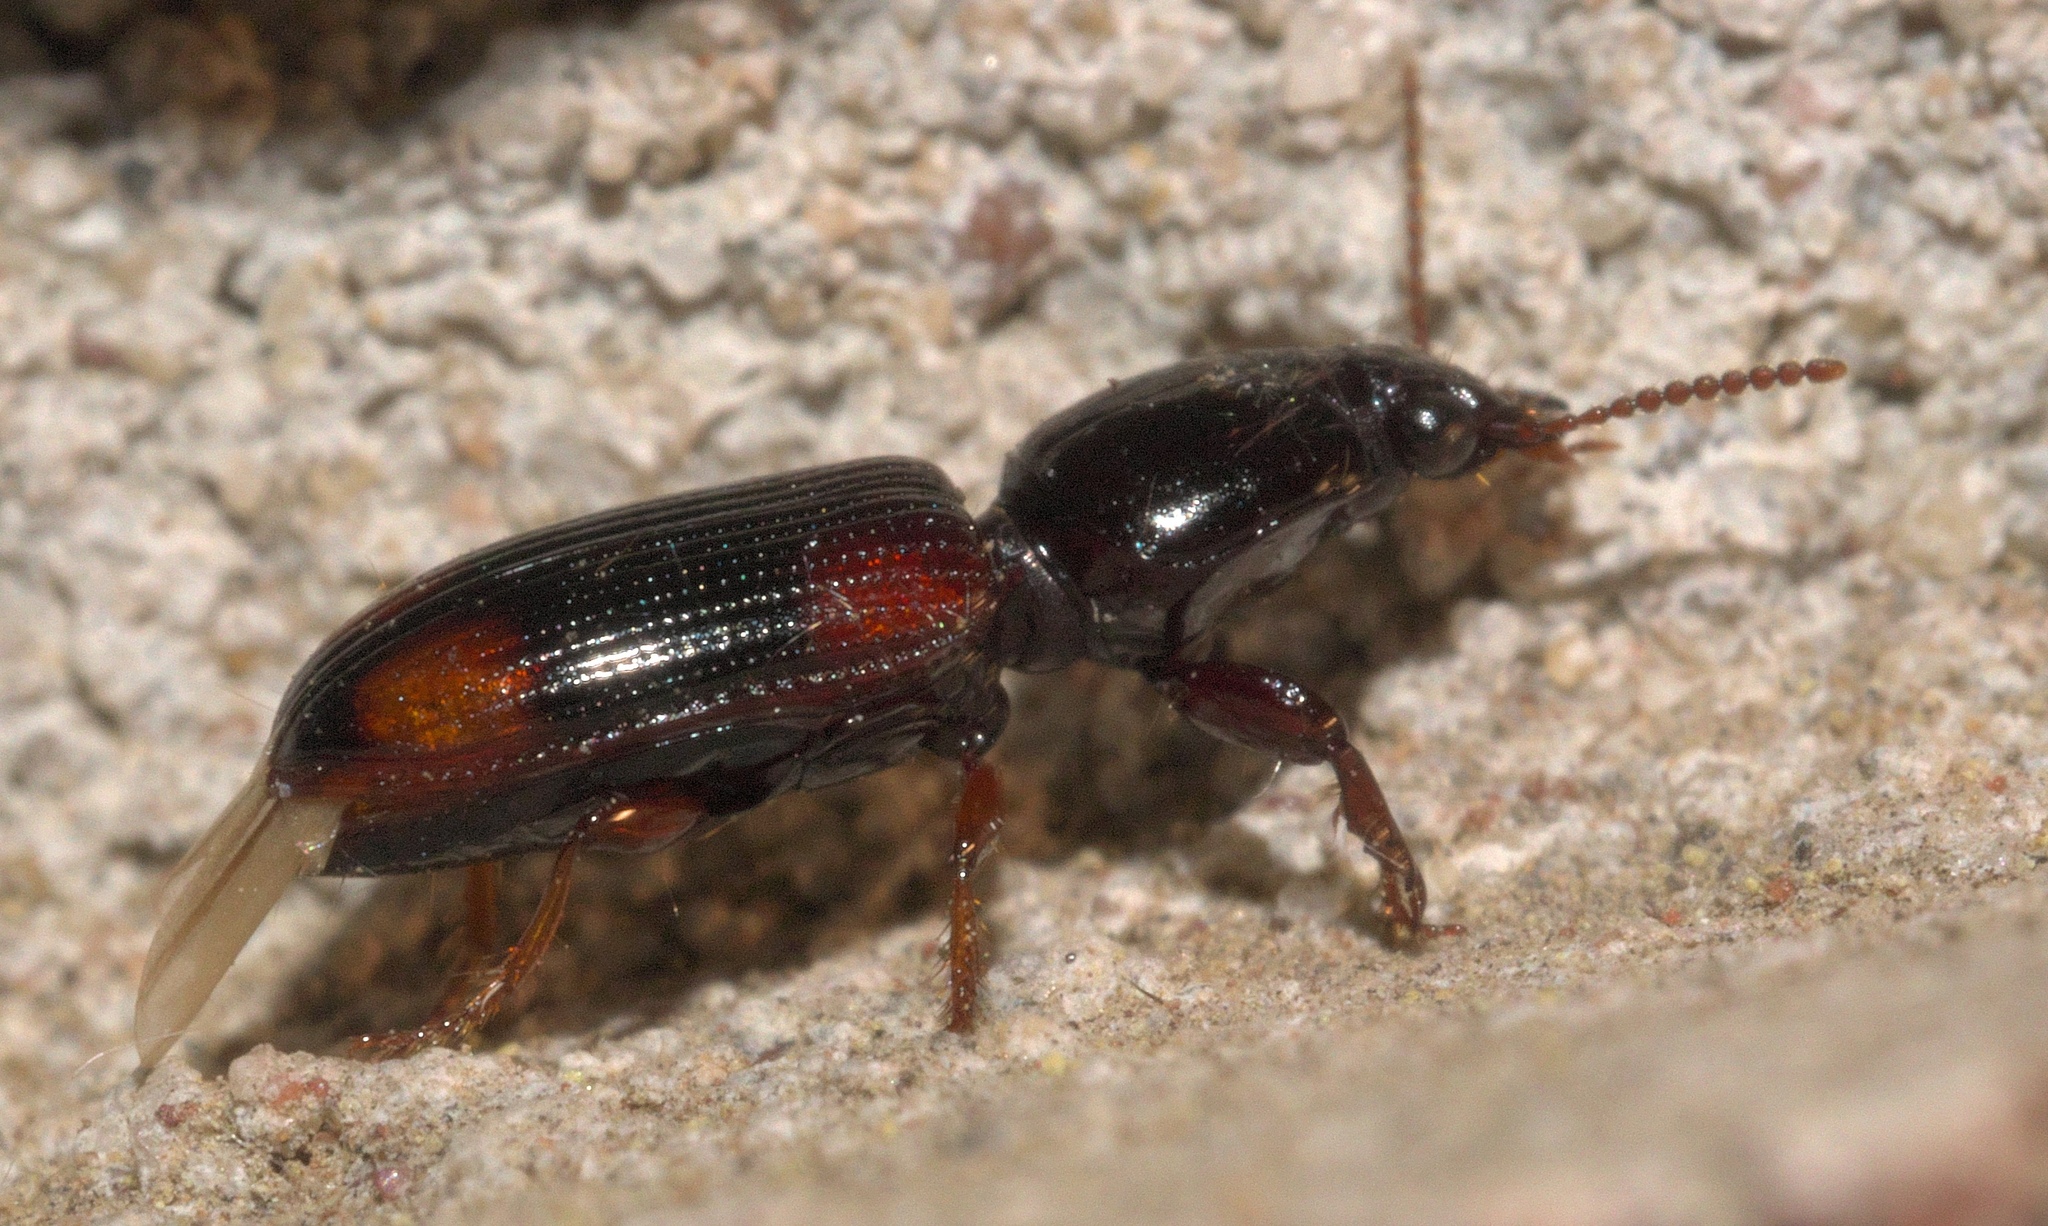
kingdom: Animalia
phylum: Arthropoda
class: Insecta
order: Coleoptera
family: Carabidae
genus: Clivina
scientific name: Clivina bipustulata
